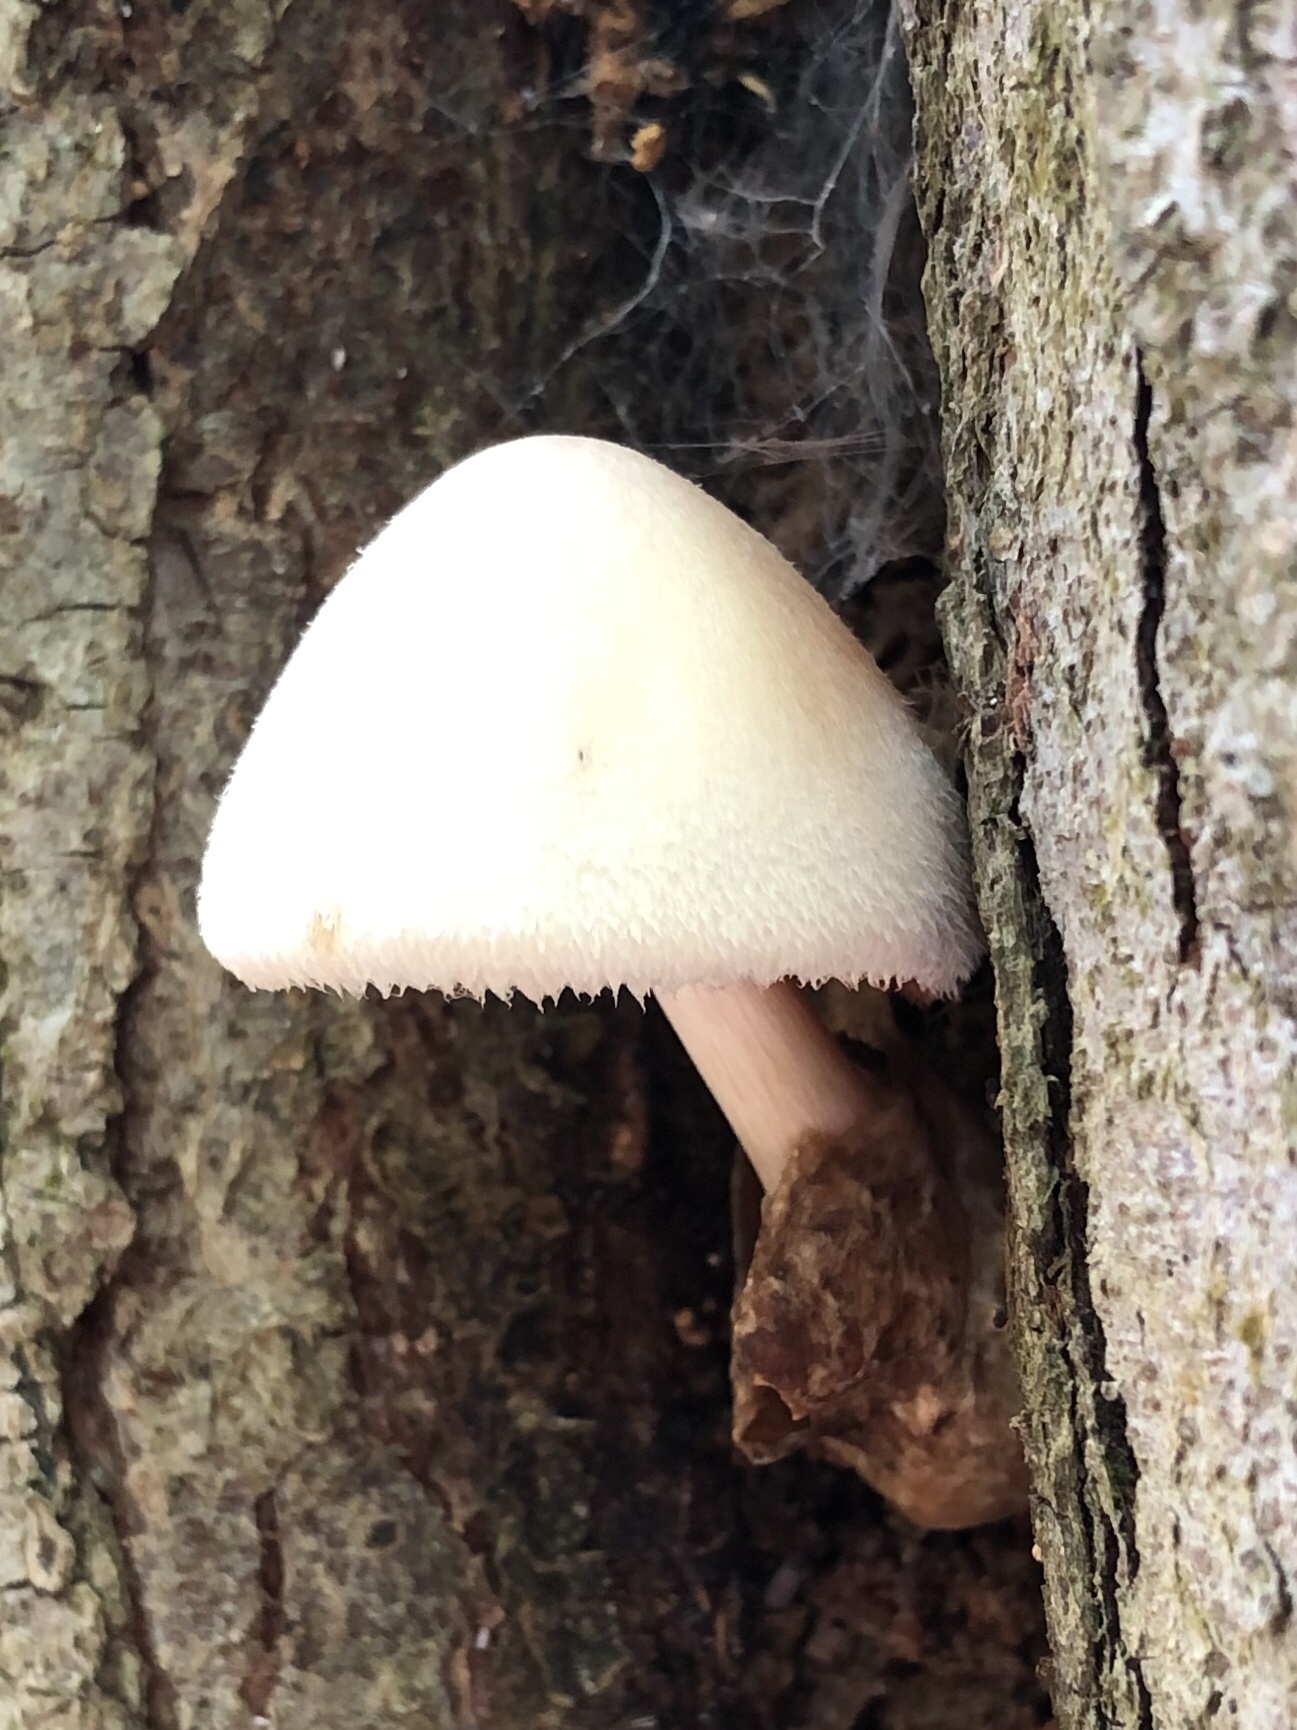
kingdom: Fungi
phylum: Basidiomycota
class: Agaricomycetes
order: Agaricales
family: Pluteaceae
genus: Volvariella
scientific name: Volvariella bombycina
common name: Silky rosegill
